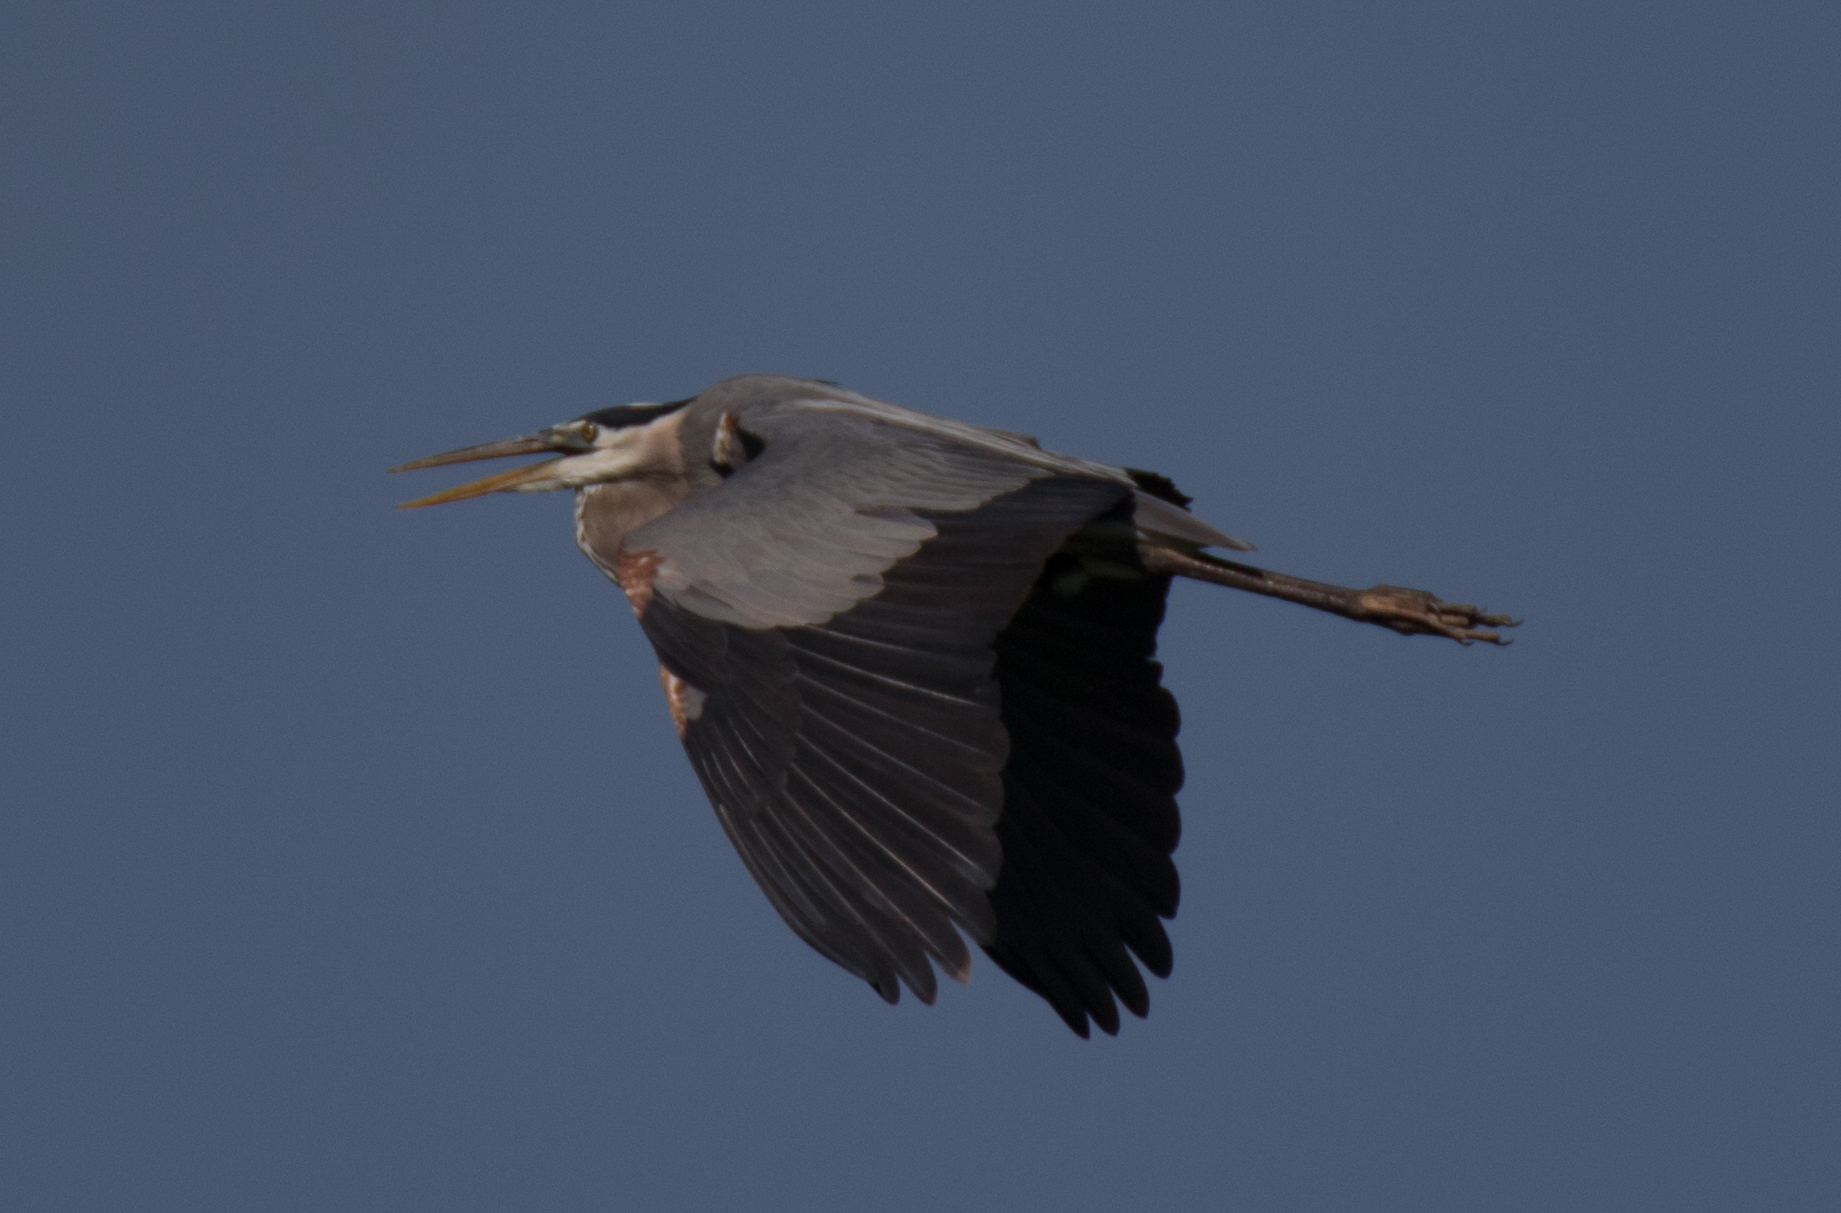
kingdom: Animalia
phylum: Chordata
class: Aves
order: Pelecaniformes
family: Ardeidae
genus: Ardea
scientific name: Ardea herodias
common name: Great blue heron
